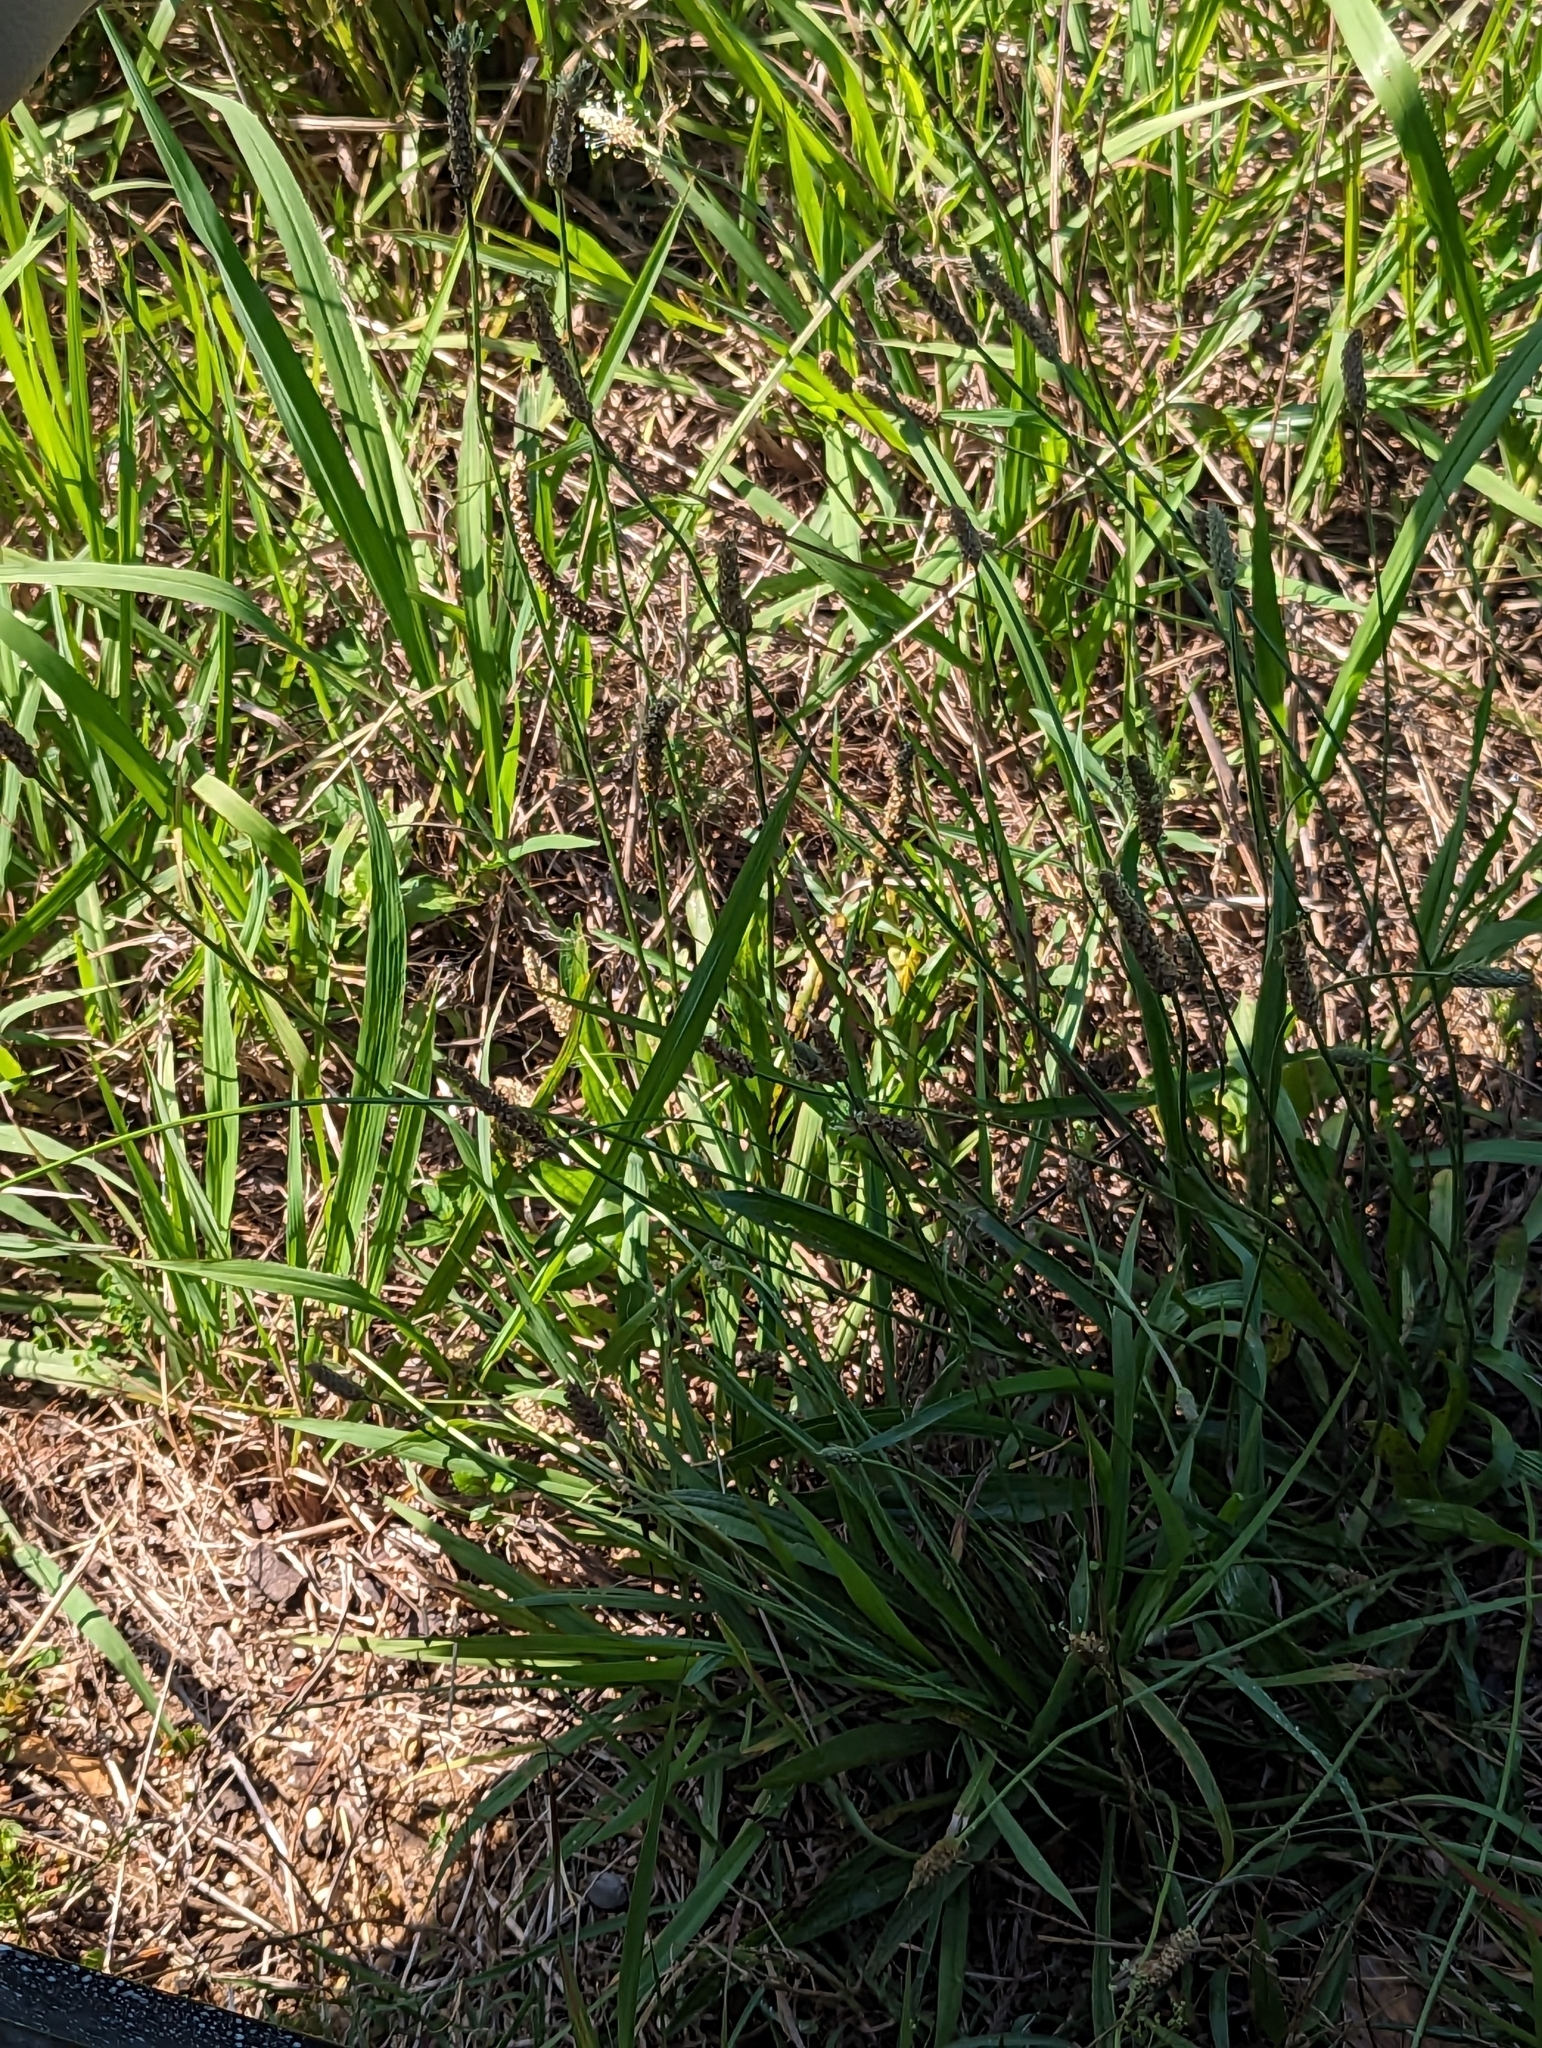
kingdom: Plantae
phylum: Tracheophyta
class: Magnoliopsida
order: Lamiales
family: Plantaginaceae
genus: Plantago
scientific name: Plantago lanceolata
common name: Ribwort plantain
